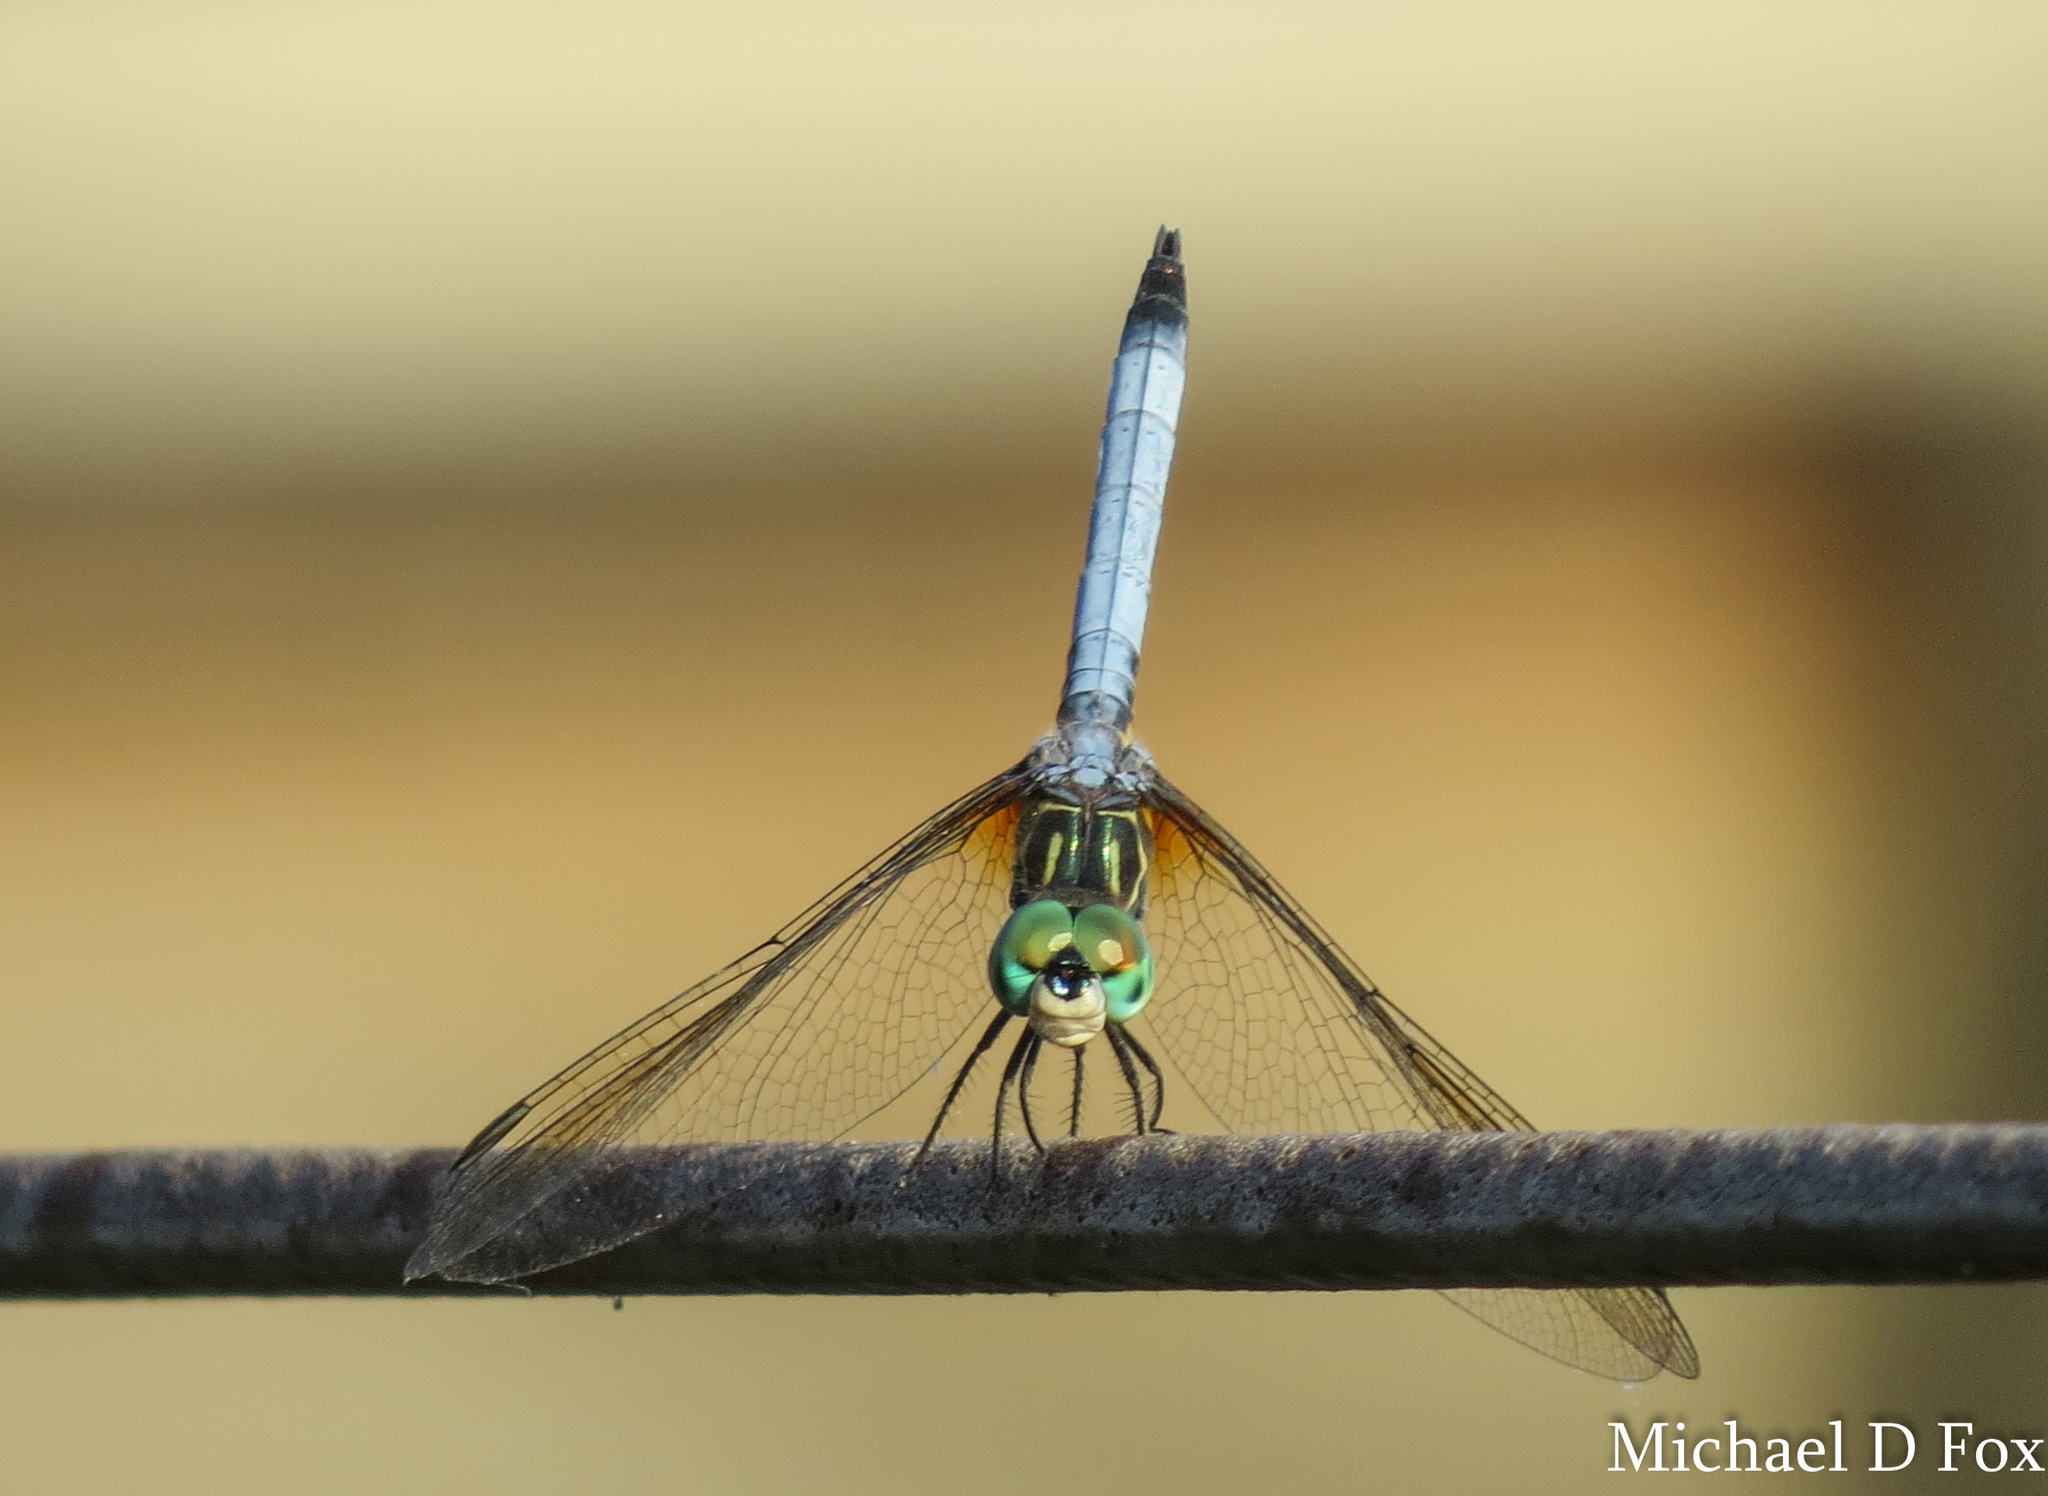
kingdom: Animalia
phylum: Arthropoda
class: Insecta
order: Odonata
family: Libellulidae
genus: Pachydiplax
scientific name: Pachydiplax longipennis
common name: Blue dasher
